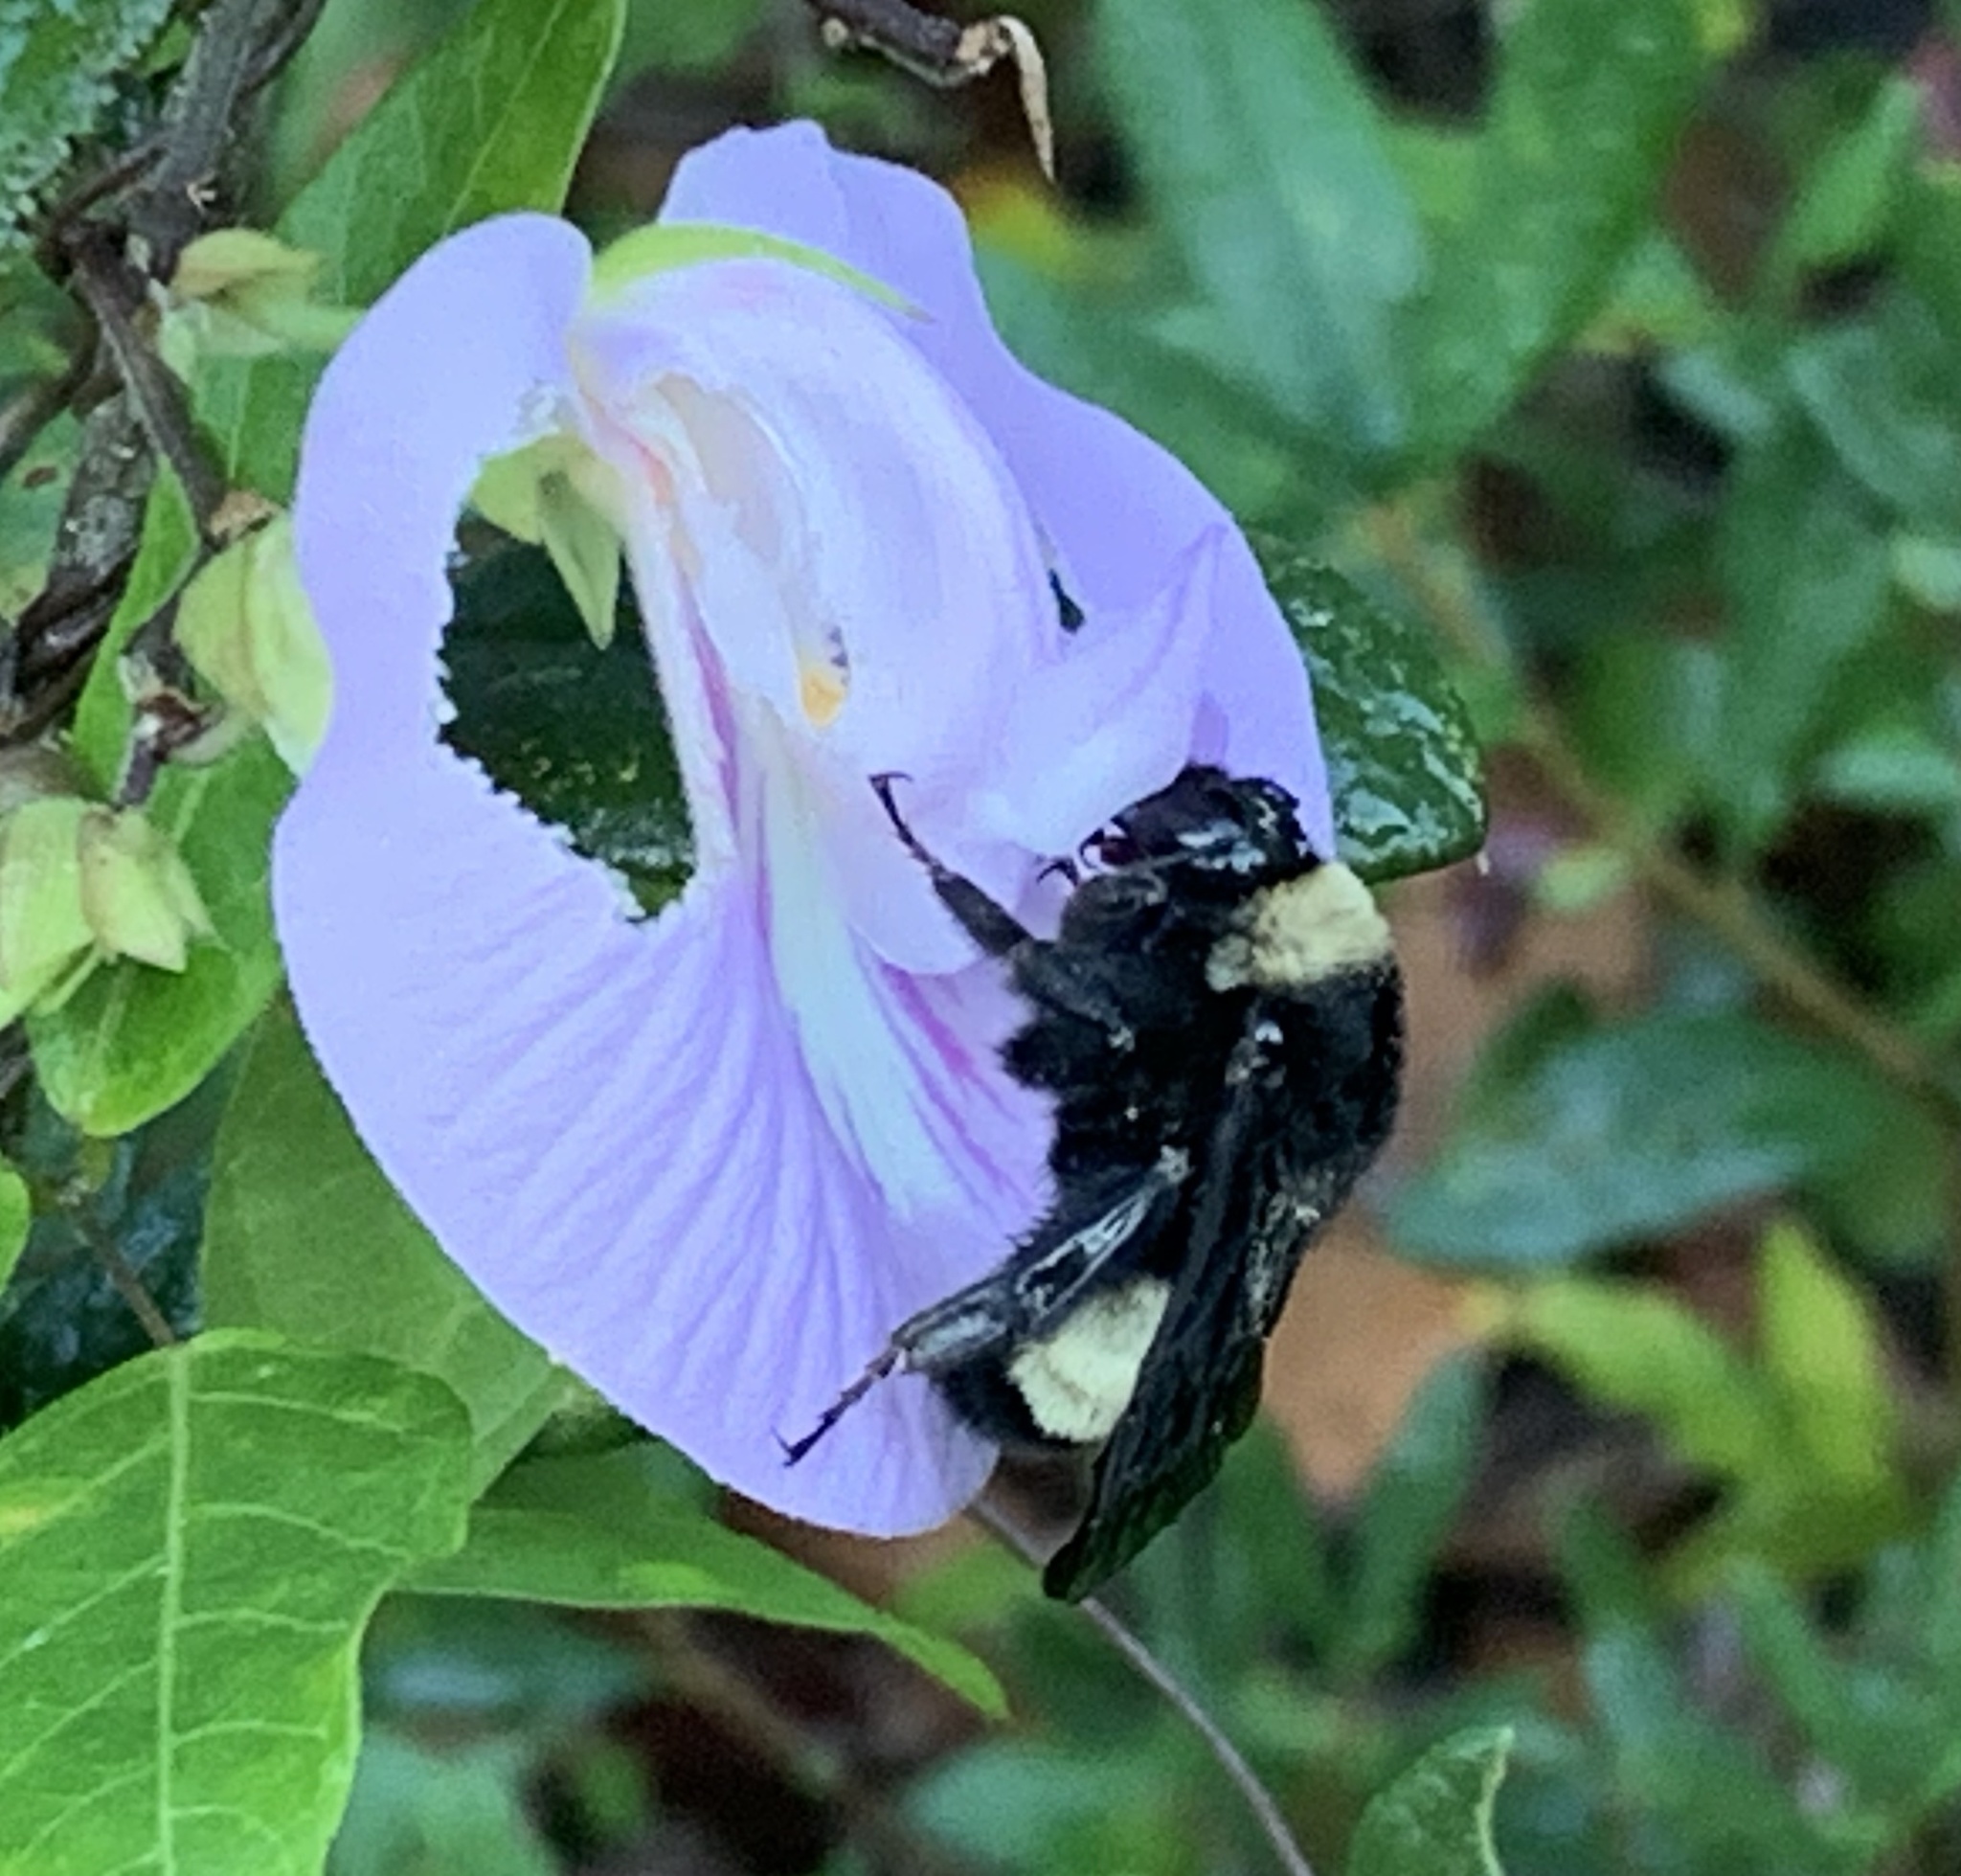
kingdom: Animalia
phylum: Arthropoda
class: Insecta
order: Hymenoptera
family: Apidae
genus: Bombus
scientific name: Bombus pensylvanicus
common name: Bumble bee
